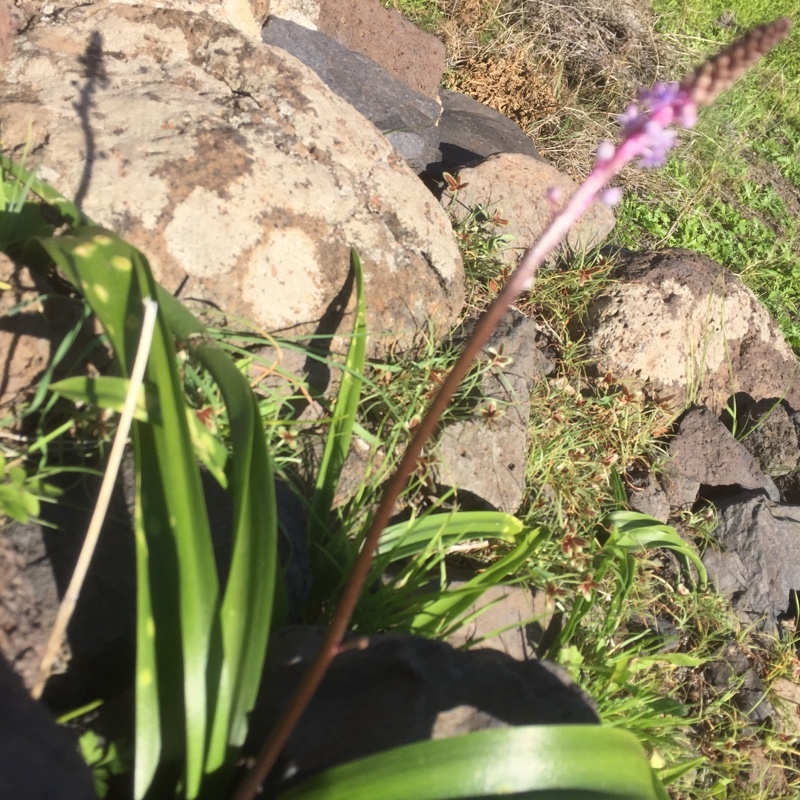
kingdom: Plantae
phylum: Tracheophyta
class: Liliopsida
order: Asparagales
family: Asparagaceae
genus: Scilla
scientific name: Scilla haemorrhoidalis
